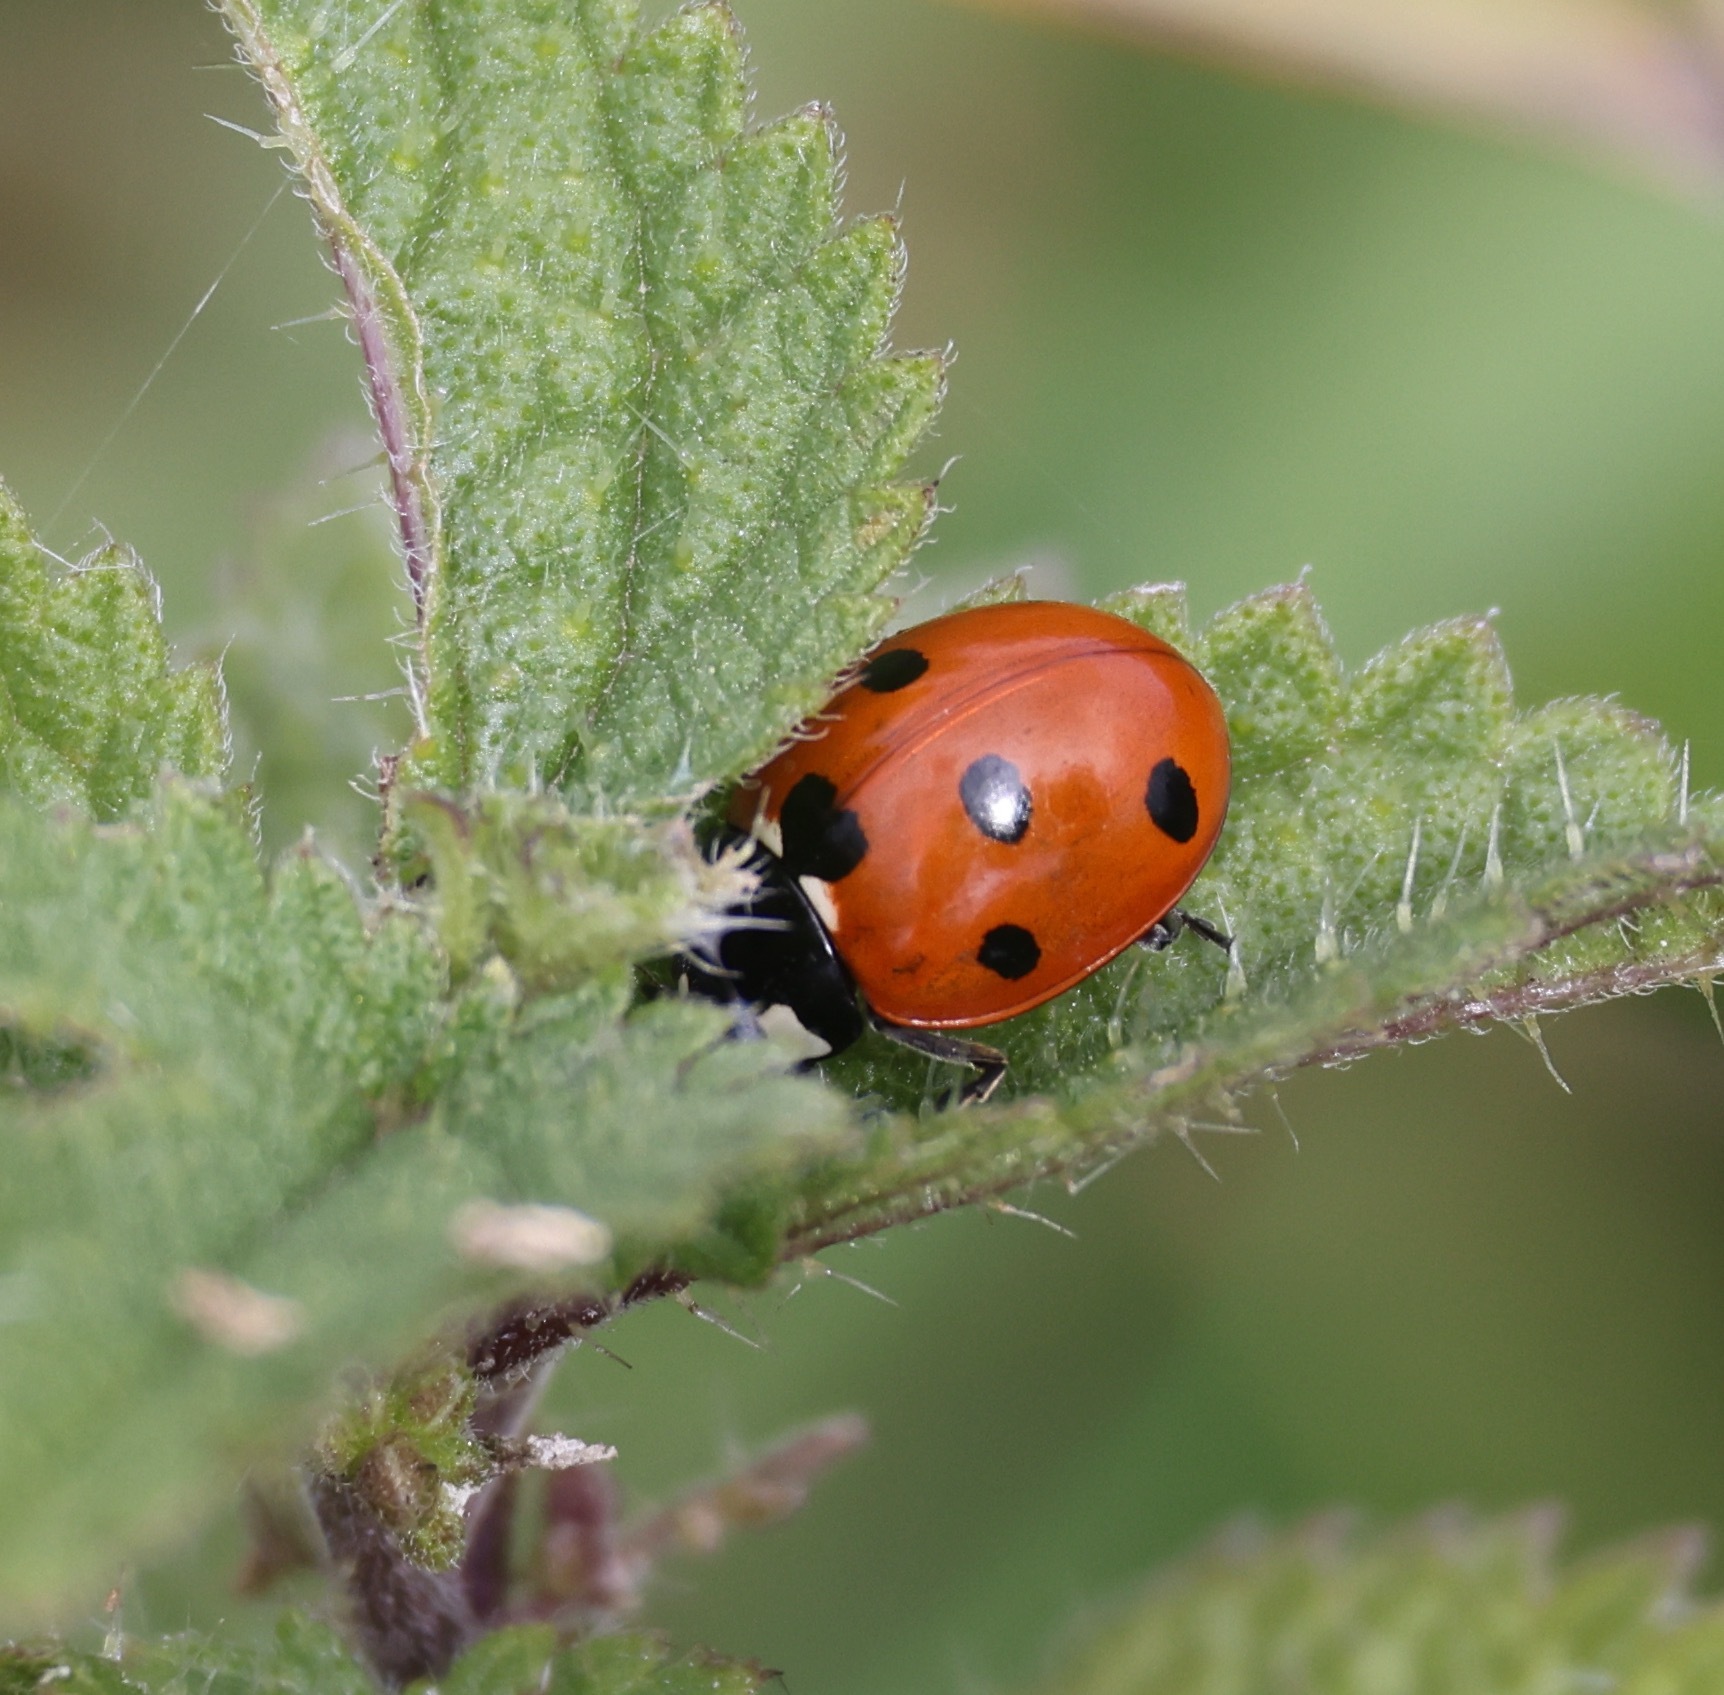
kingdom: Animalia
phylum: Arthropoda
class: Insecta
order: Coleoptera
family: Coccinellidae
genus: Coccinella
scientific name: Coccinella septempunctata
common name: Sevenspotted lady beetle
